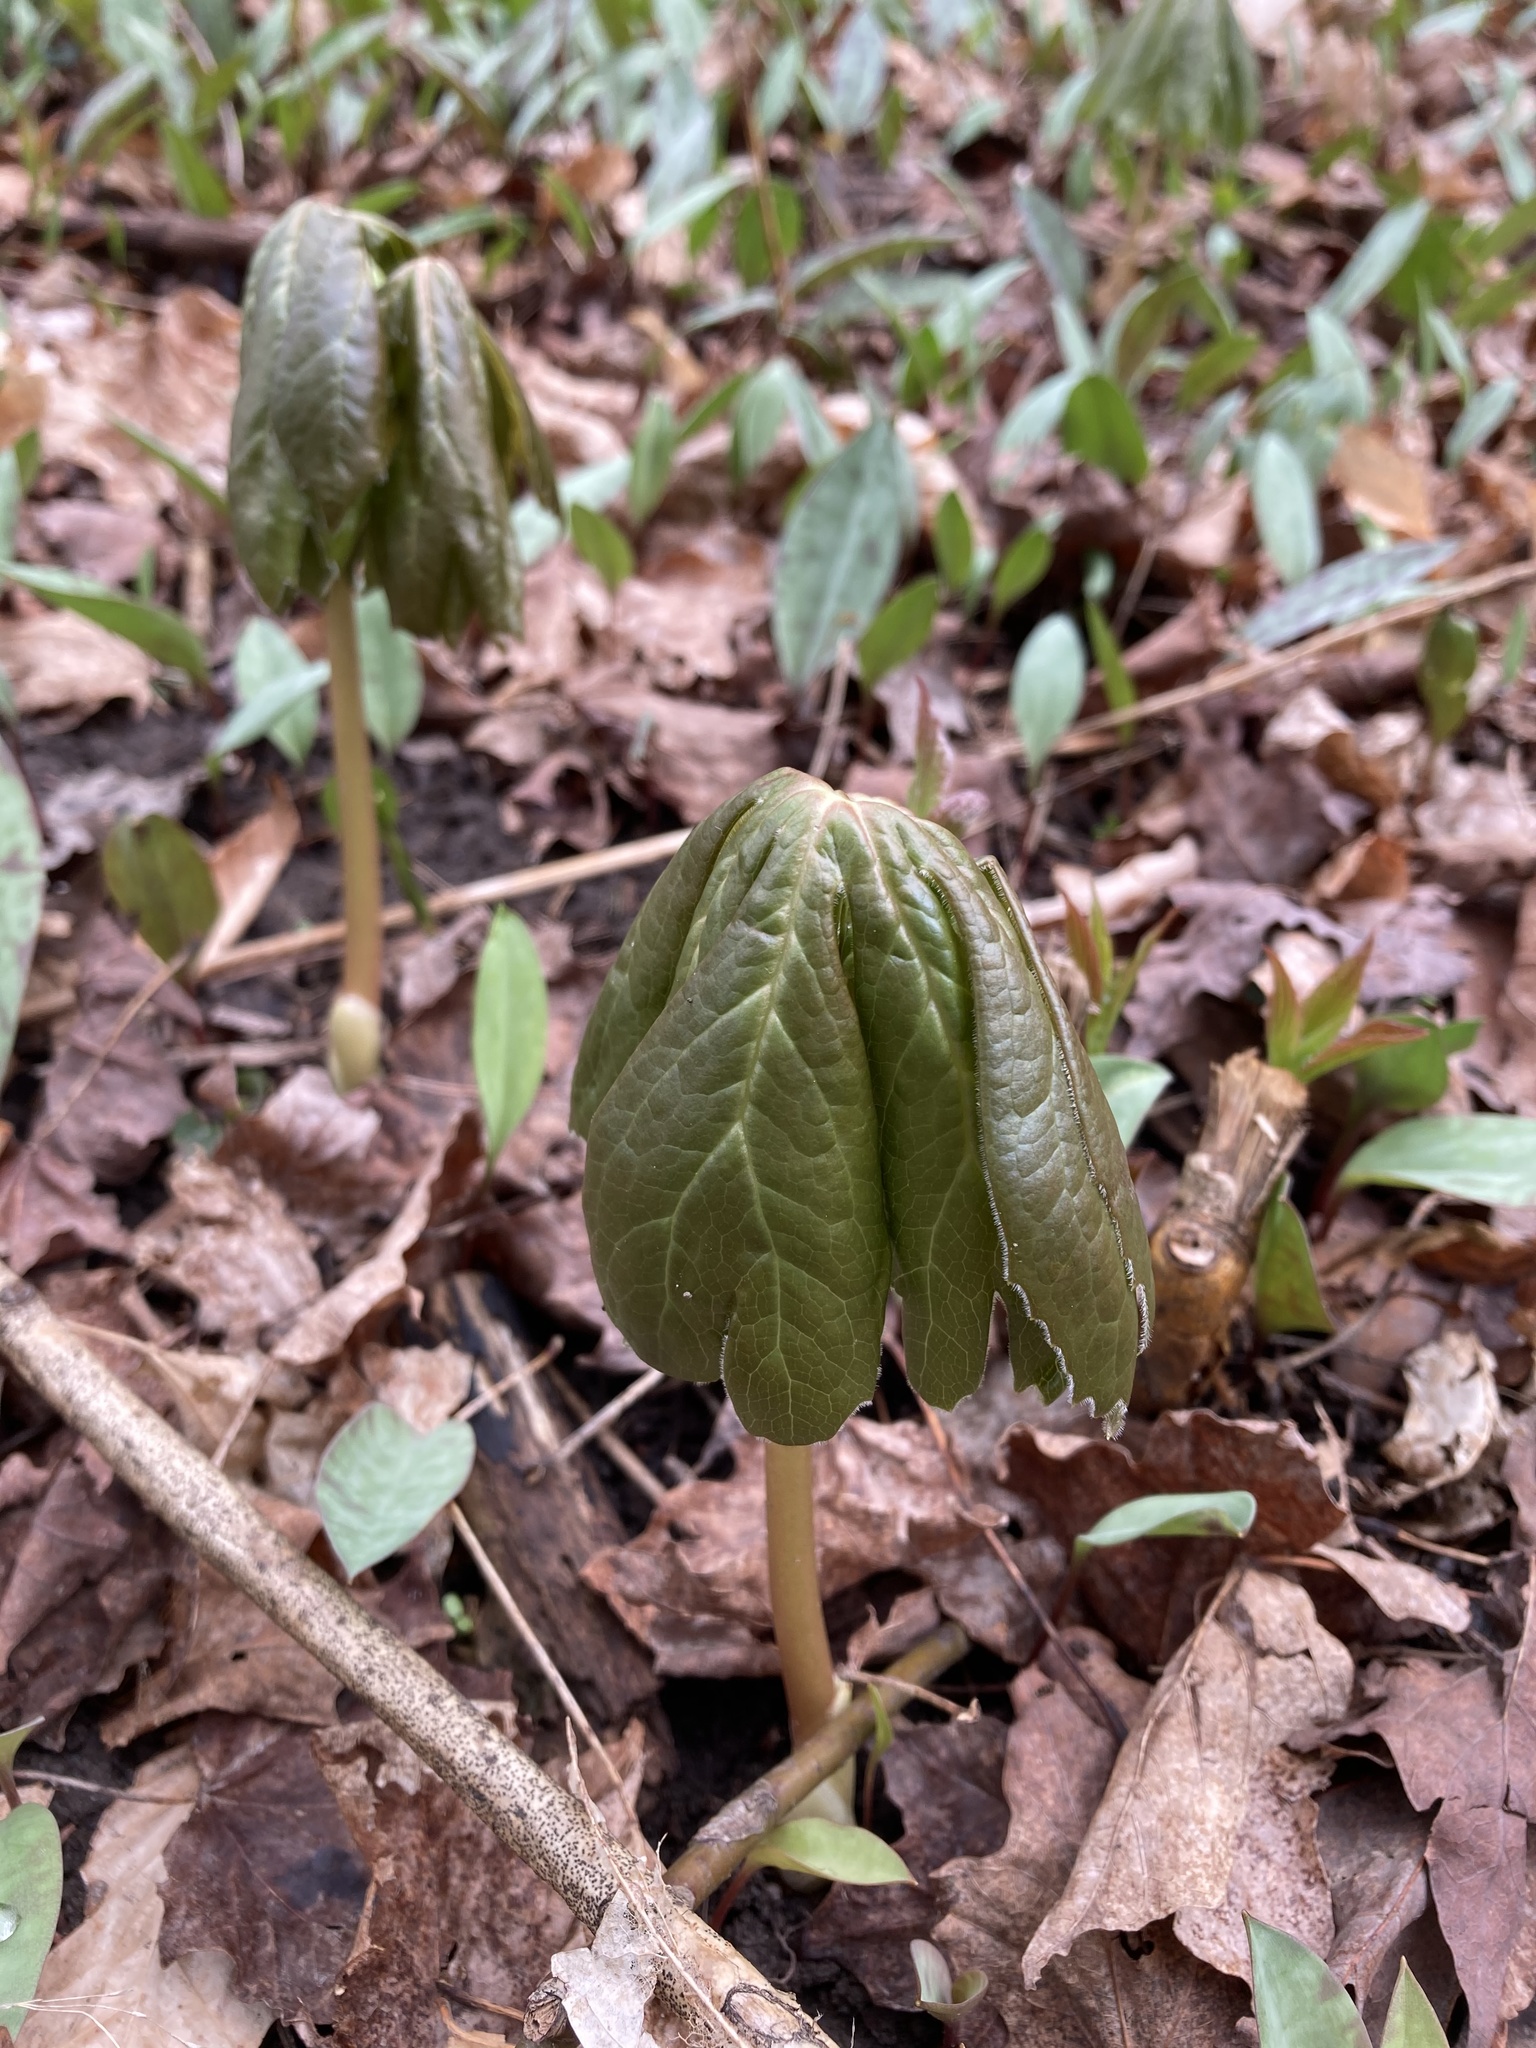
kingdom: Plantae
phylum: Tracheophyta
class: Magnoliopsida
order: Ranunculales
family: Berberidaceae
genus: Podophyllum
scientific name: Podophyllum peltatum
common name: Wild mandrake
